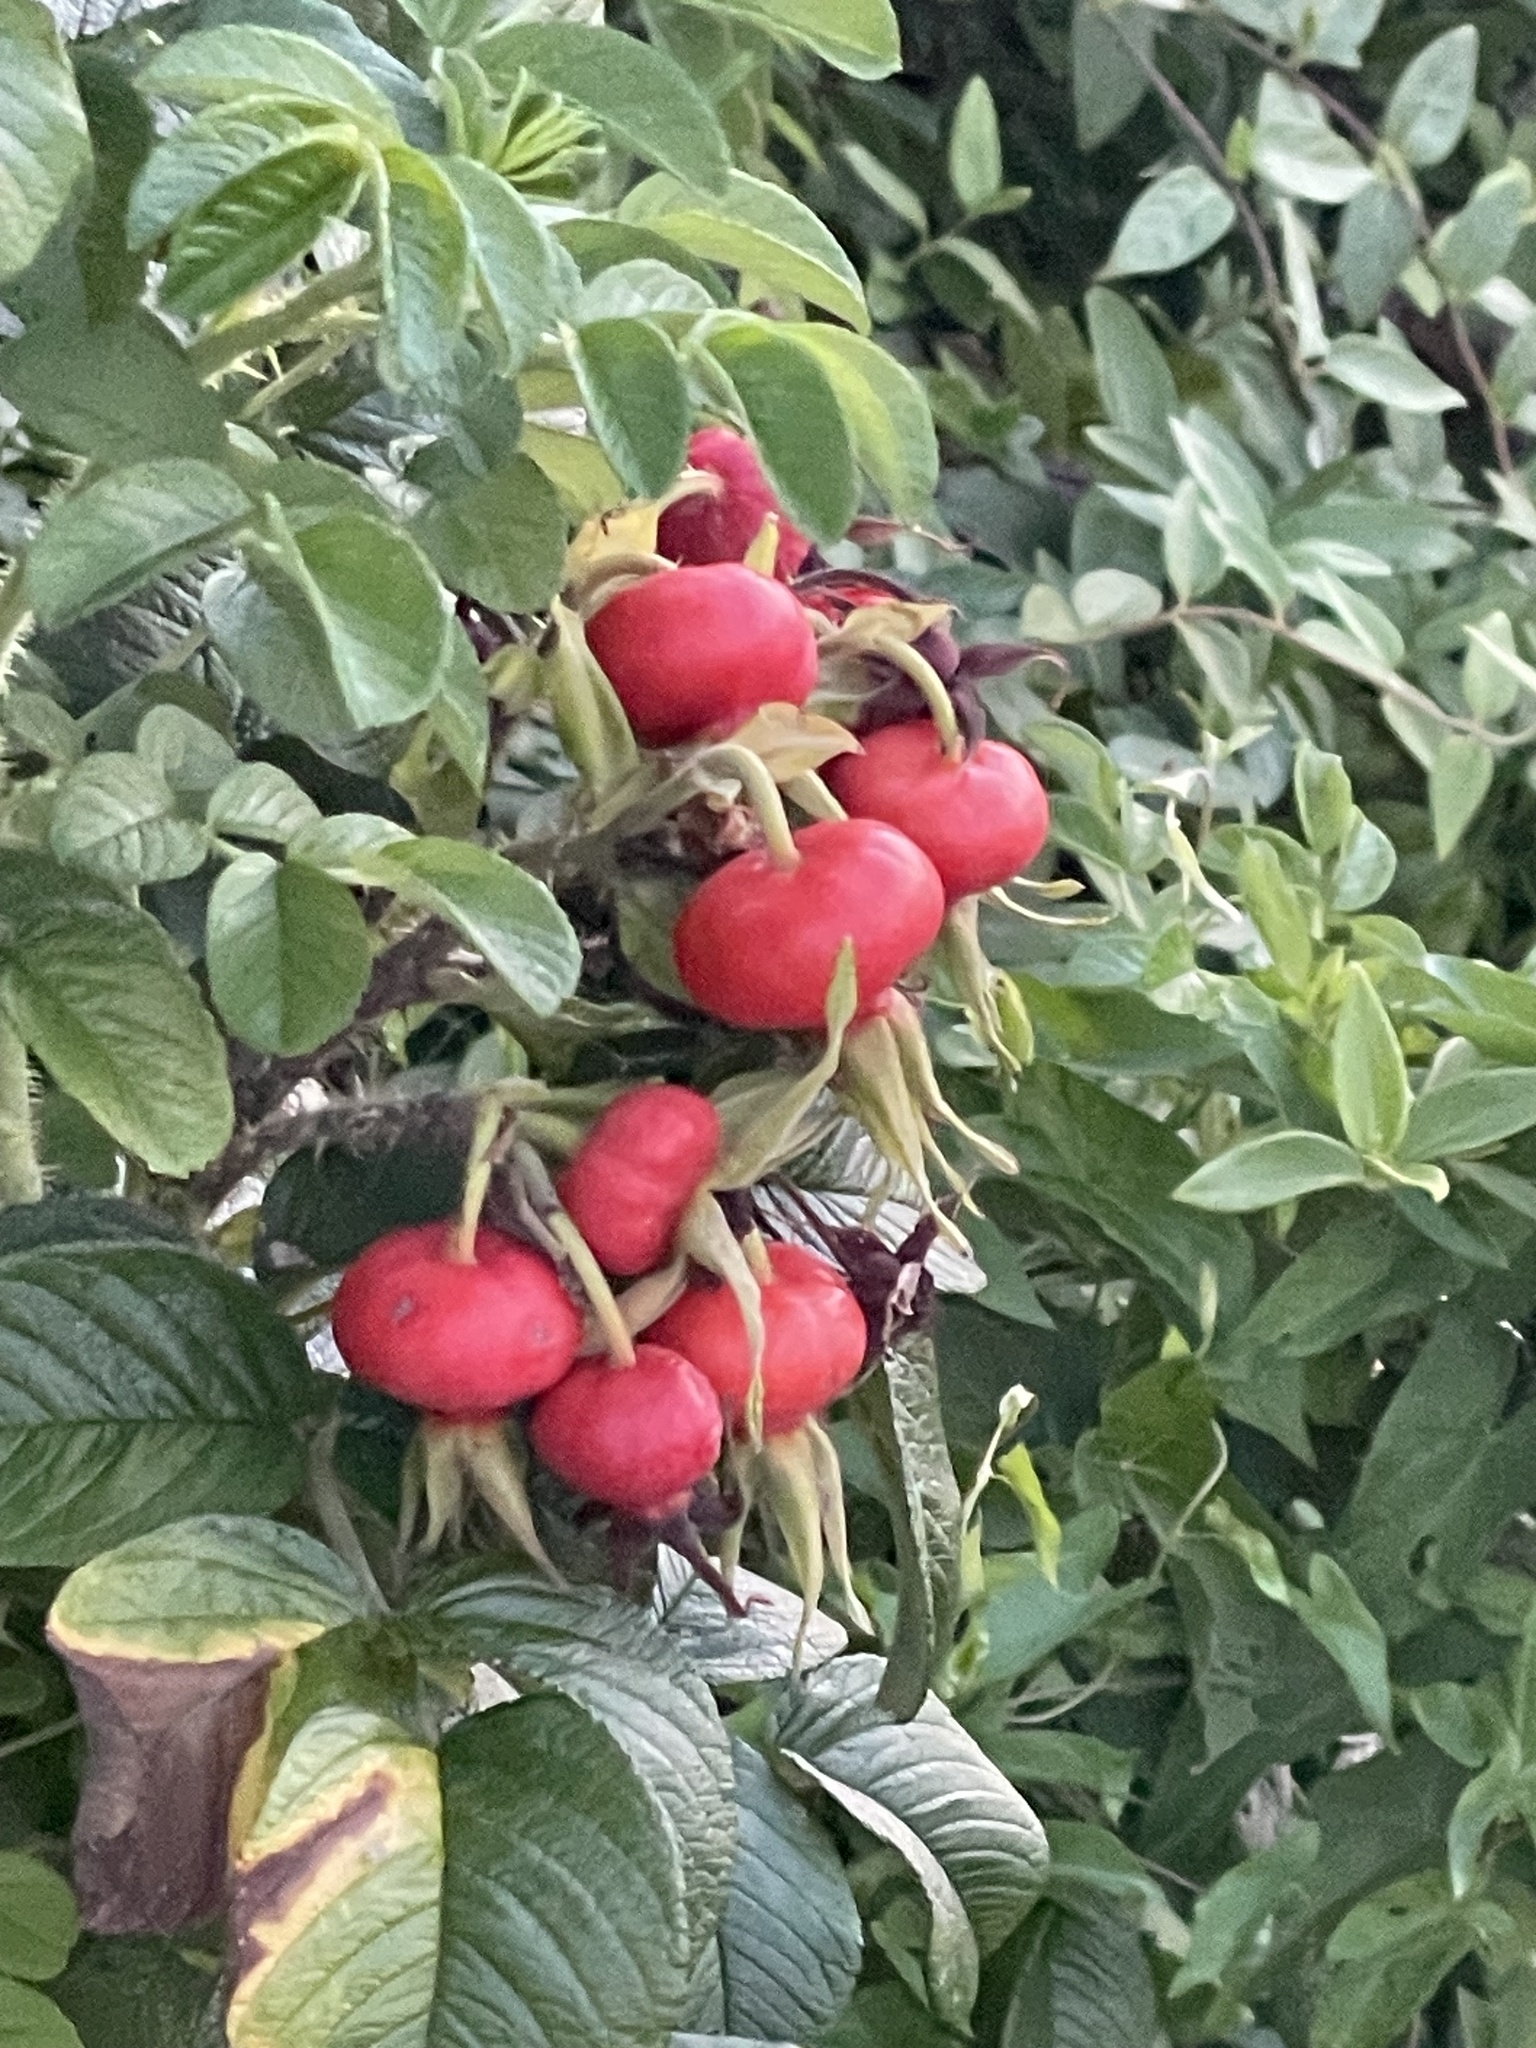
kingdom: Plantae
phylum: Tracheophyta
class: Magnoliopsida
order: Rosales
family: Rosaceae
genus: Rosa
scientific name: Rosa rugosa
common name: Japanese rose
